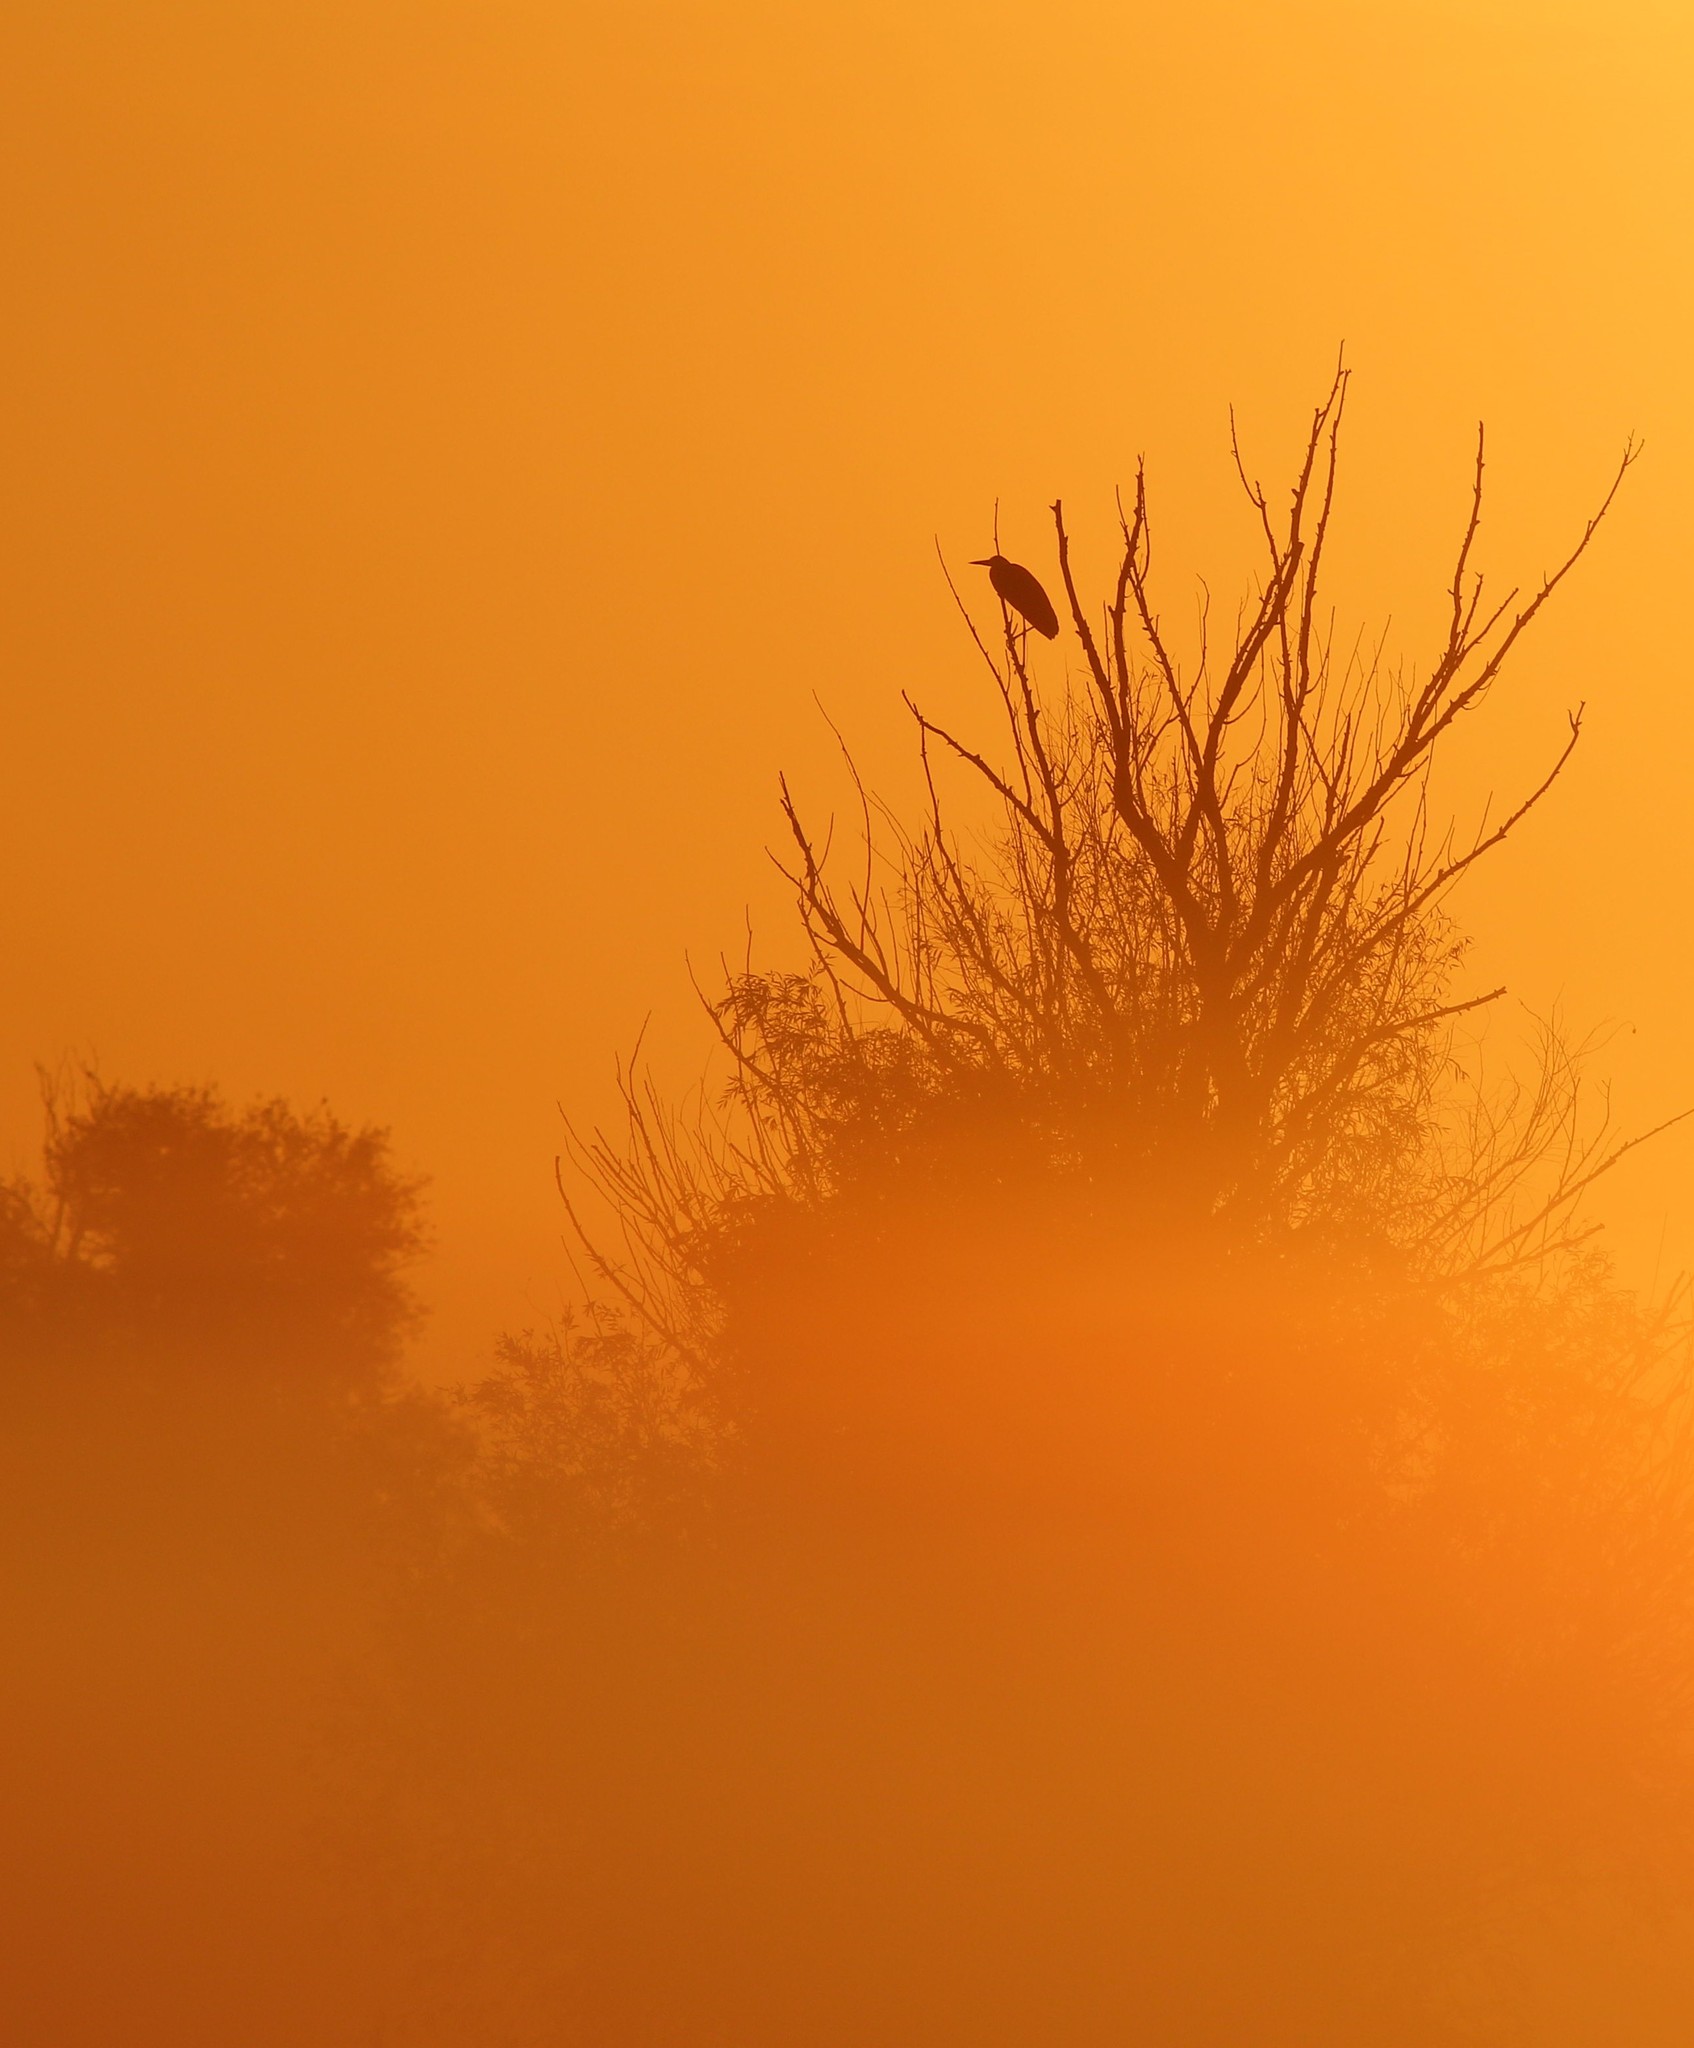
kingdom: Animalia
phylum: Chordata
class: Aves
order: Pelecaniformes
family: Ardeidae
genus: Ardea
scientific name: Ardea cinerea
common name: Grey heron
